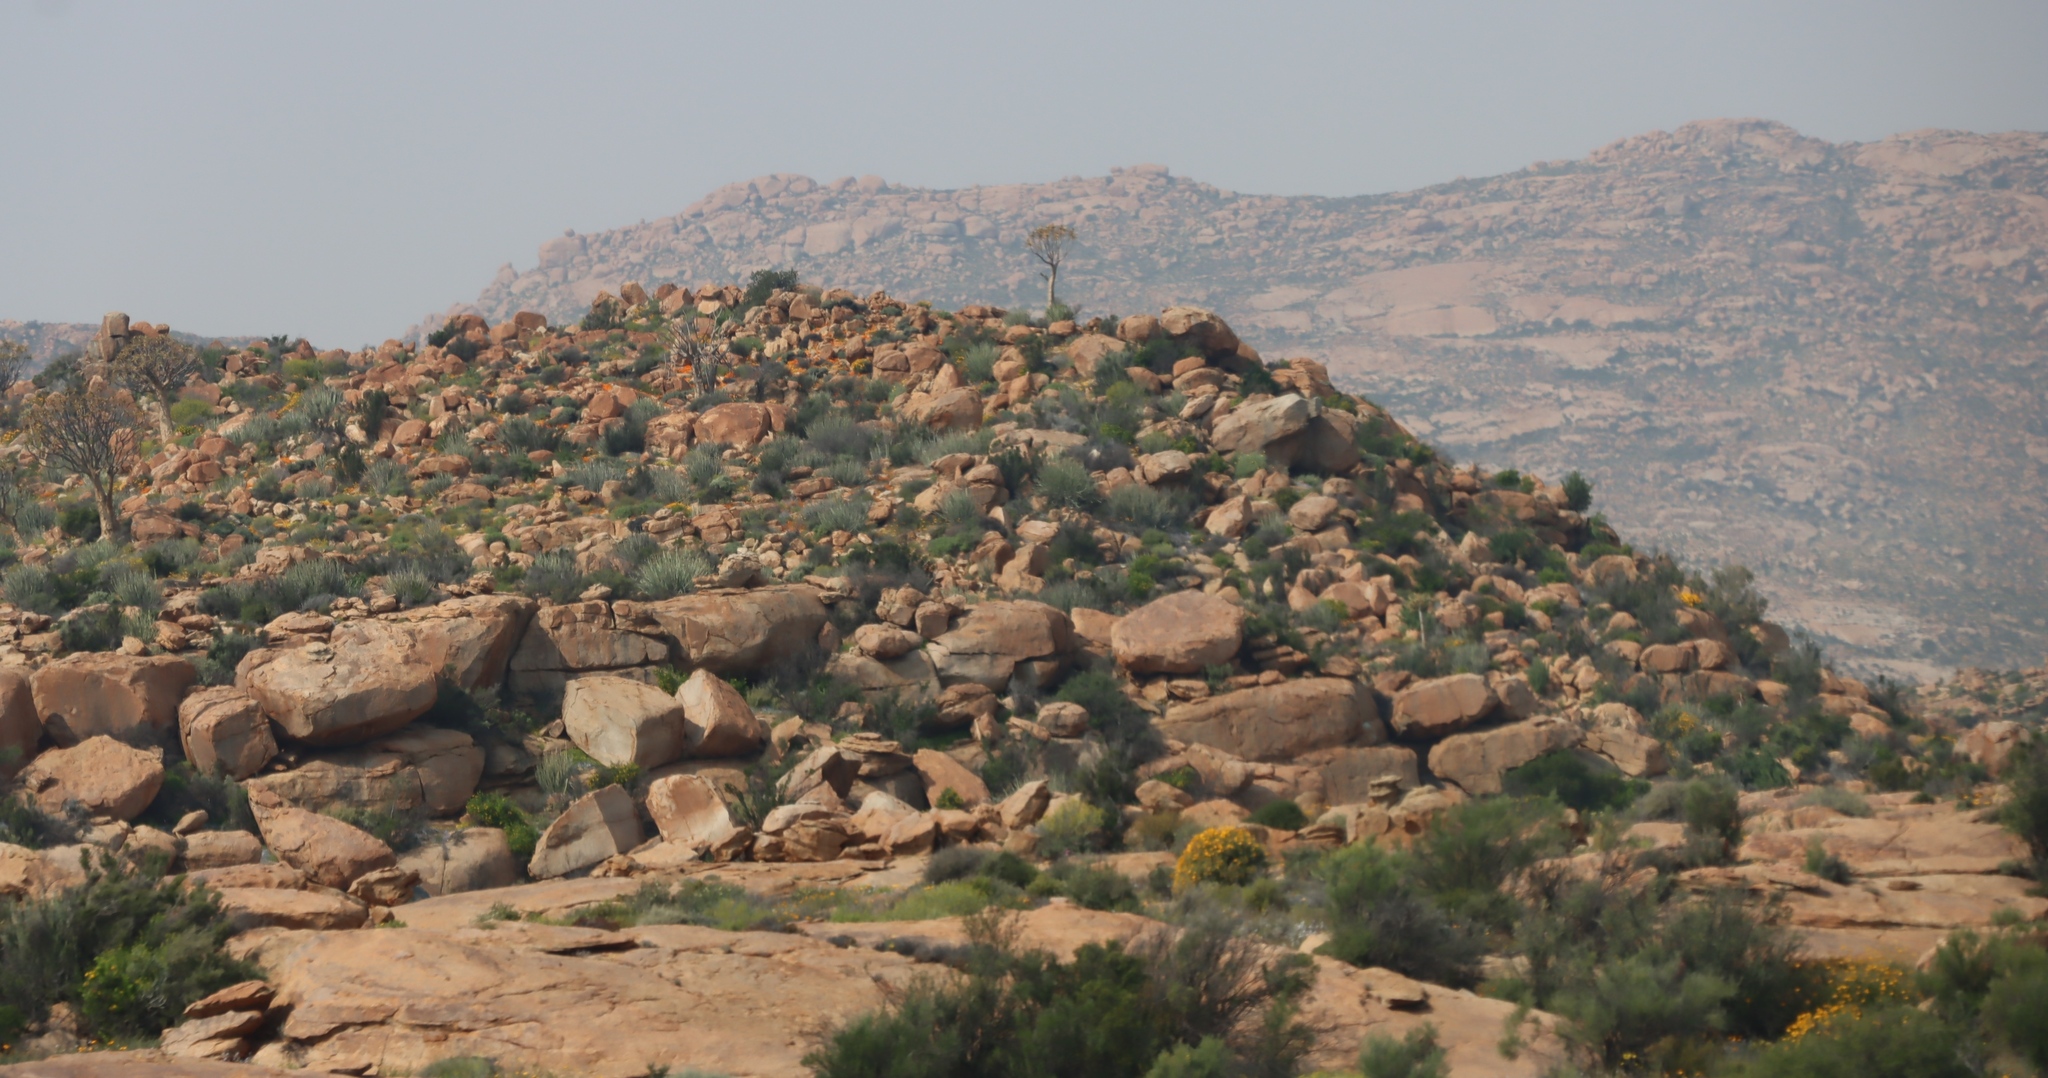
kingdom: Plantae
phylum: Tracheophyta
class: Liliopsida
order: Asparagales
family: Asphodelaceae
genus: Aloidendron
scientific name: Aloidendron dichotomum
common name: Quiver tree
